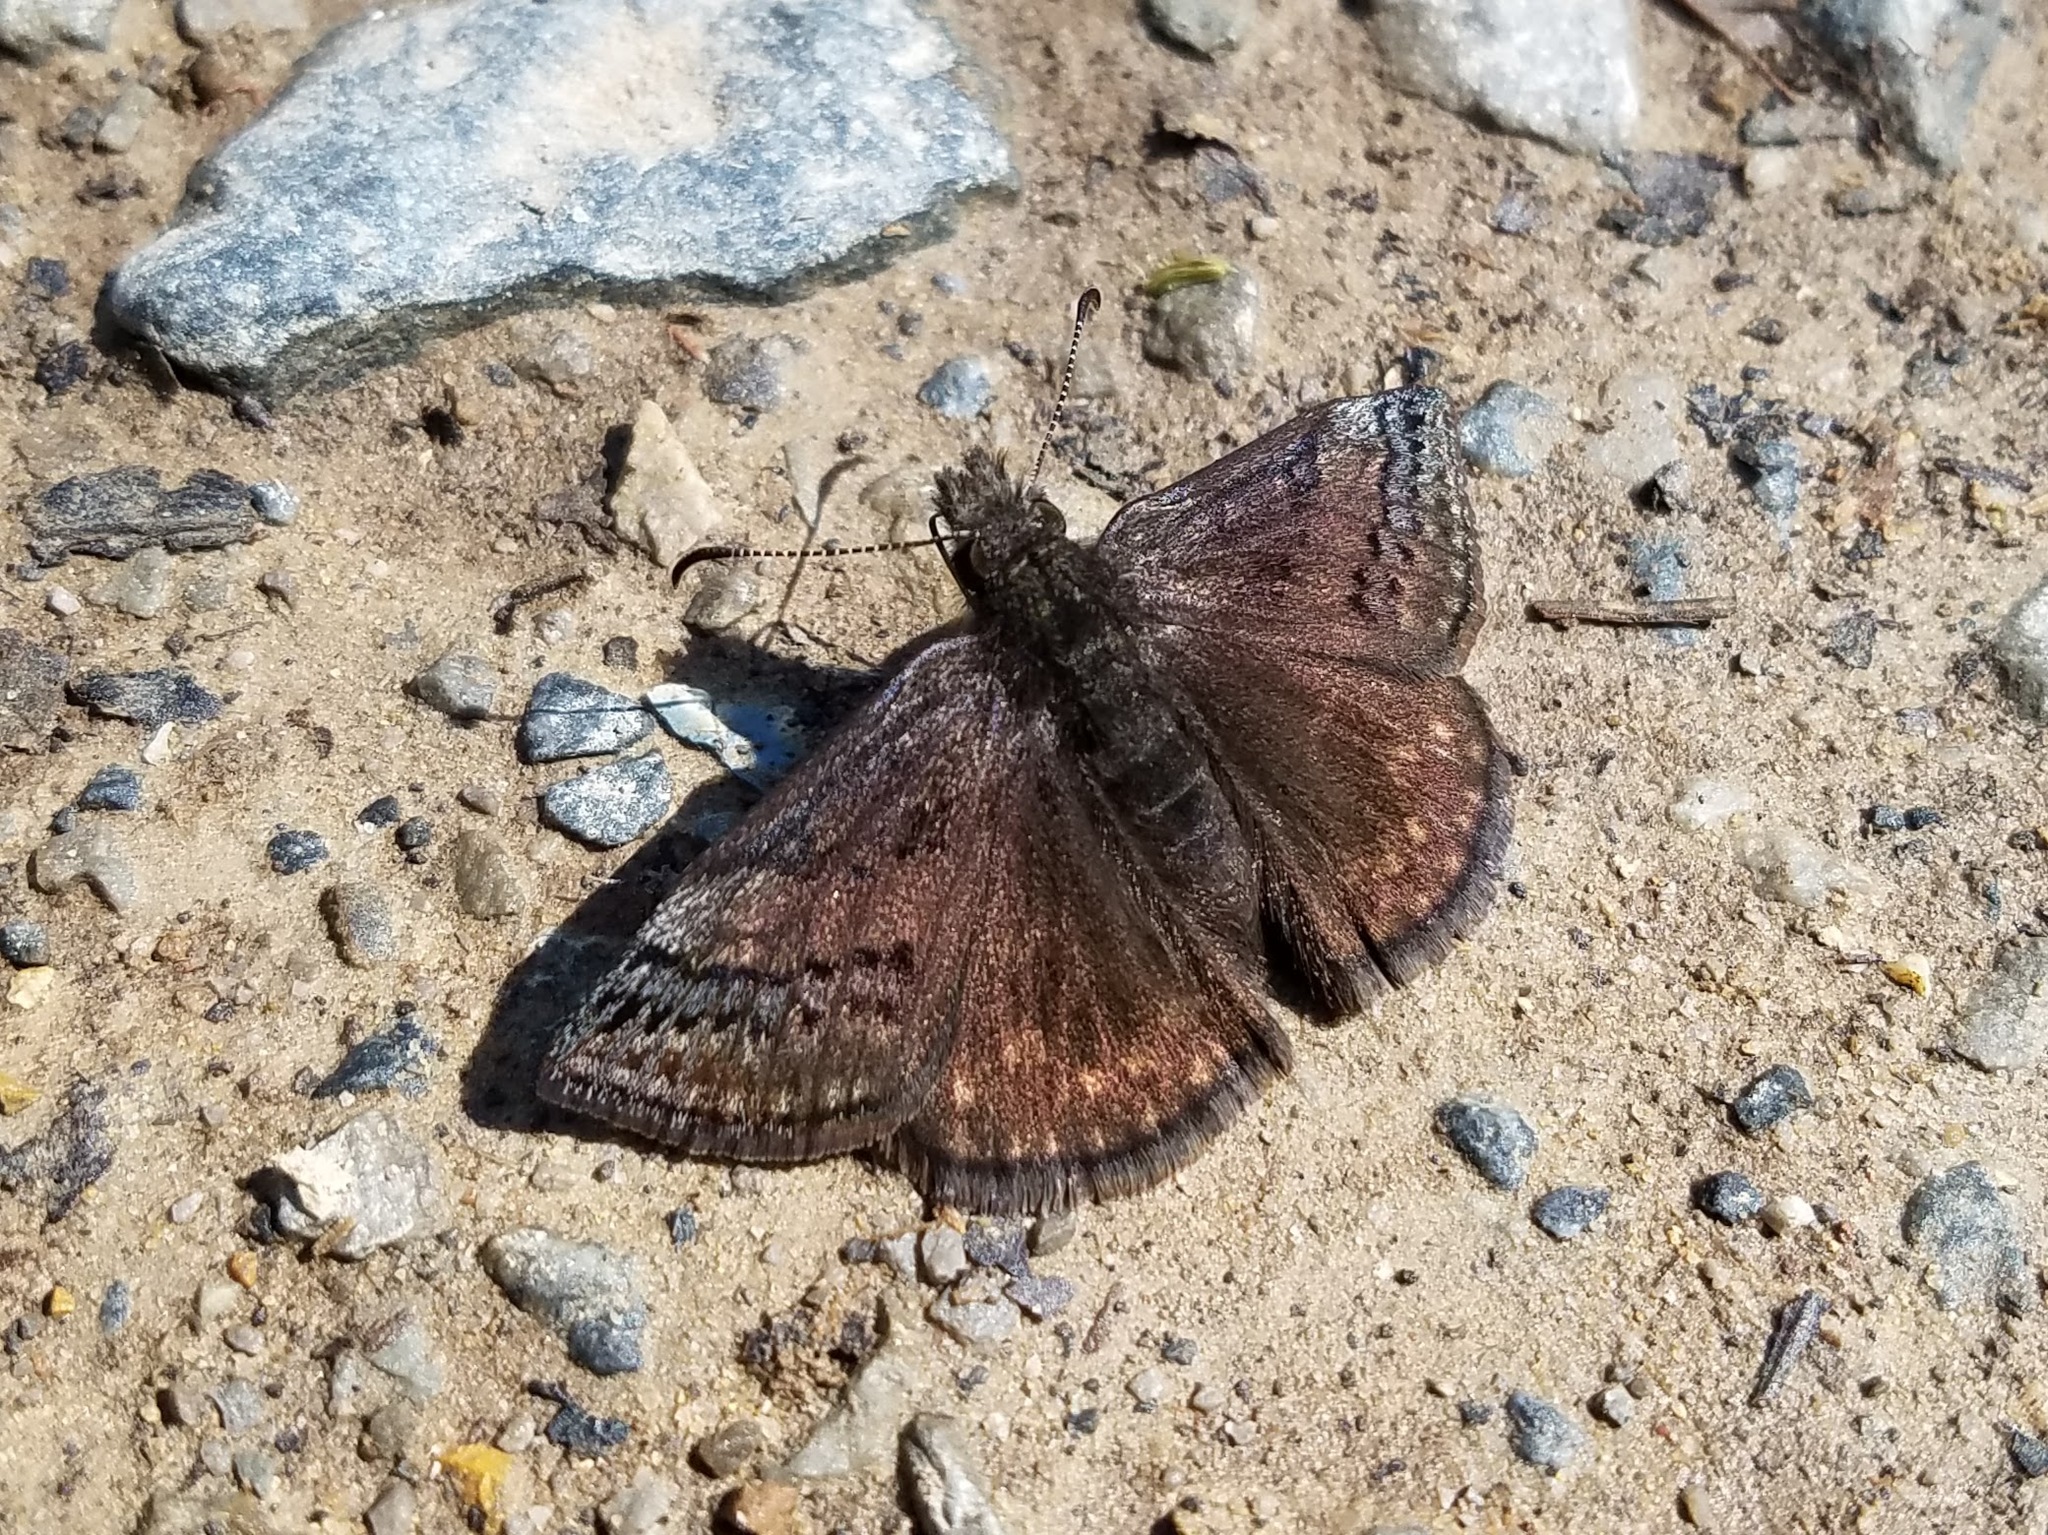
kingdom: Animalia
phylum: Arthropoda
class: Insecta
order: Lepidoptera
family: Hesperiidae
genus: Erynnis
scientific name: Erynnis brizo
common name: Sleepy duskywing
